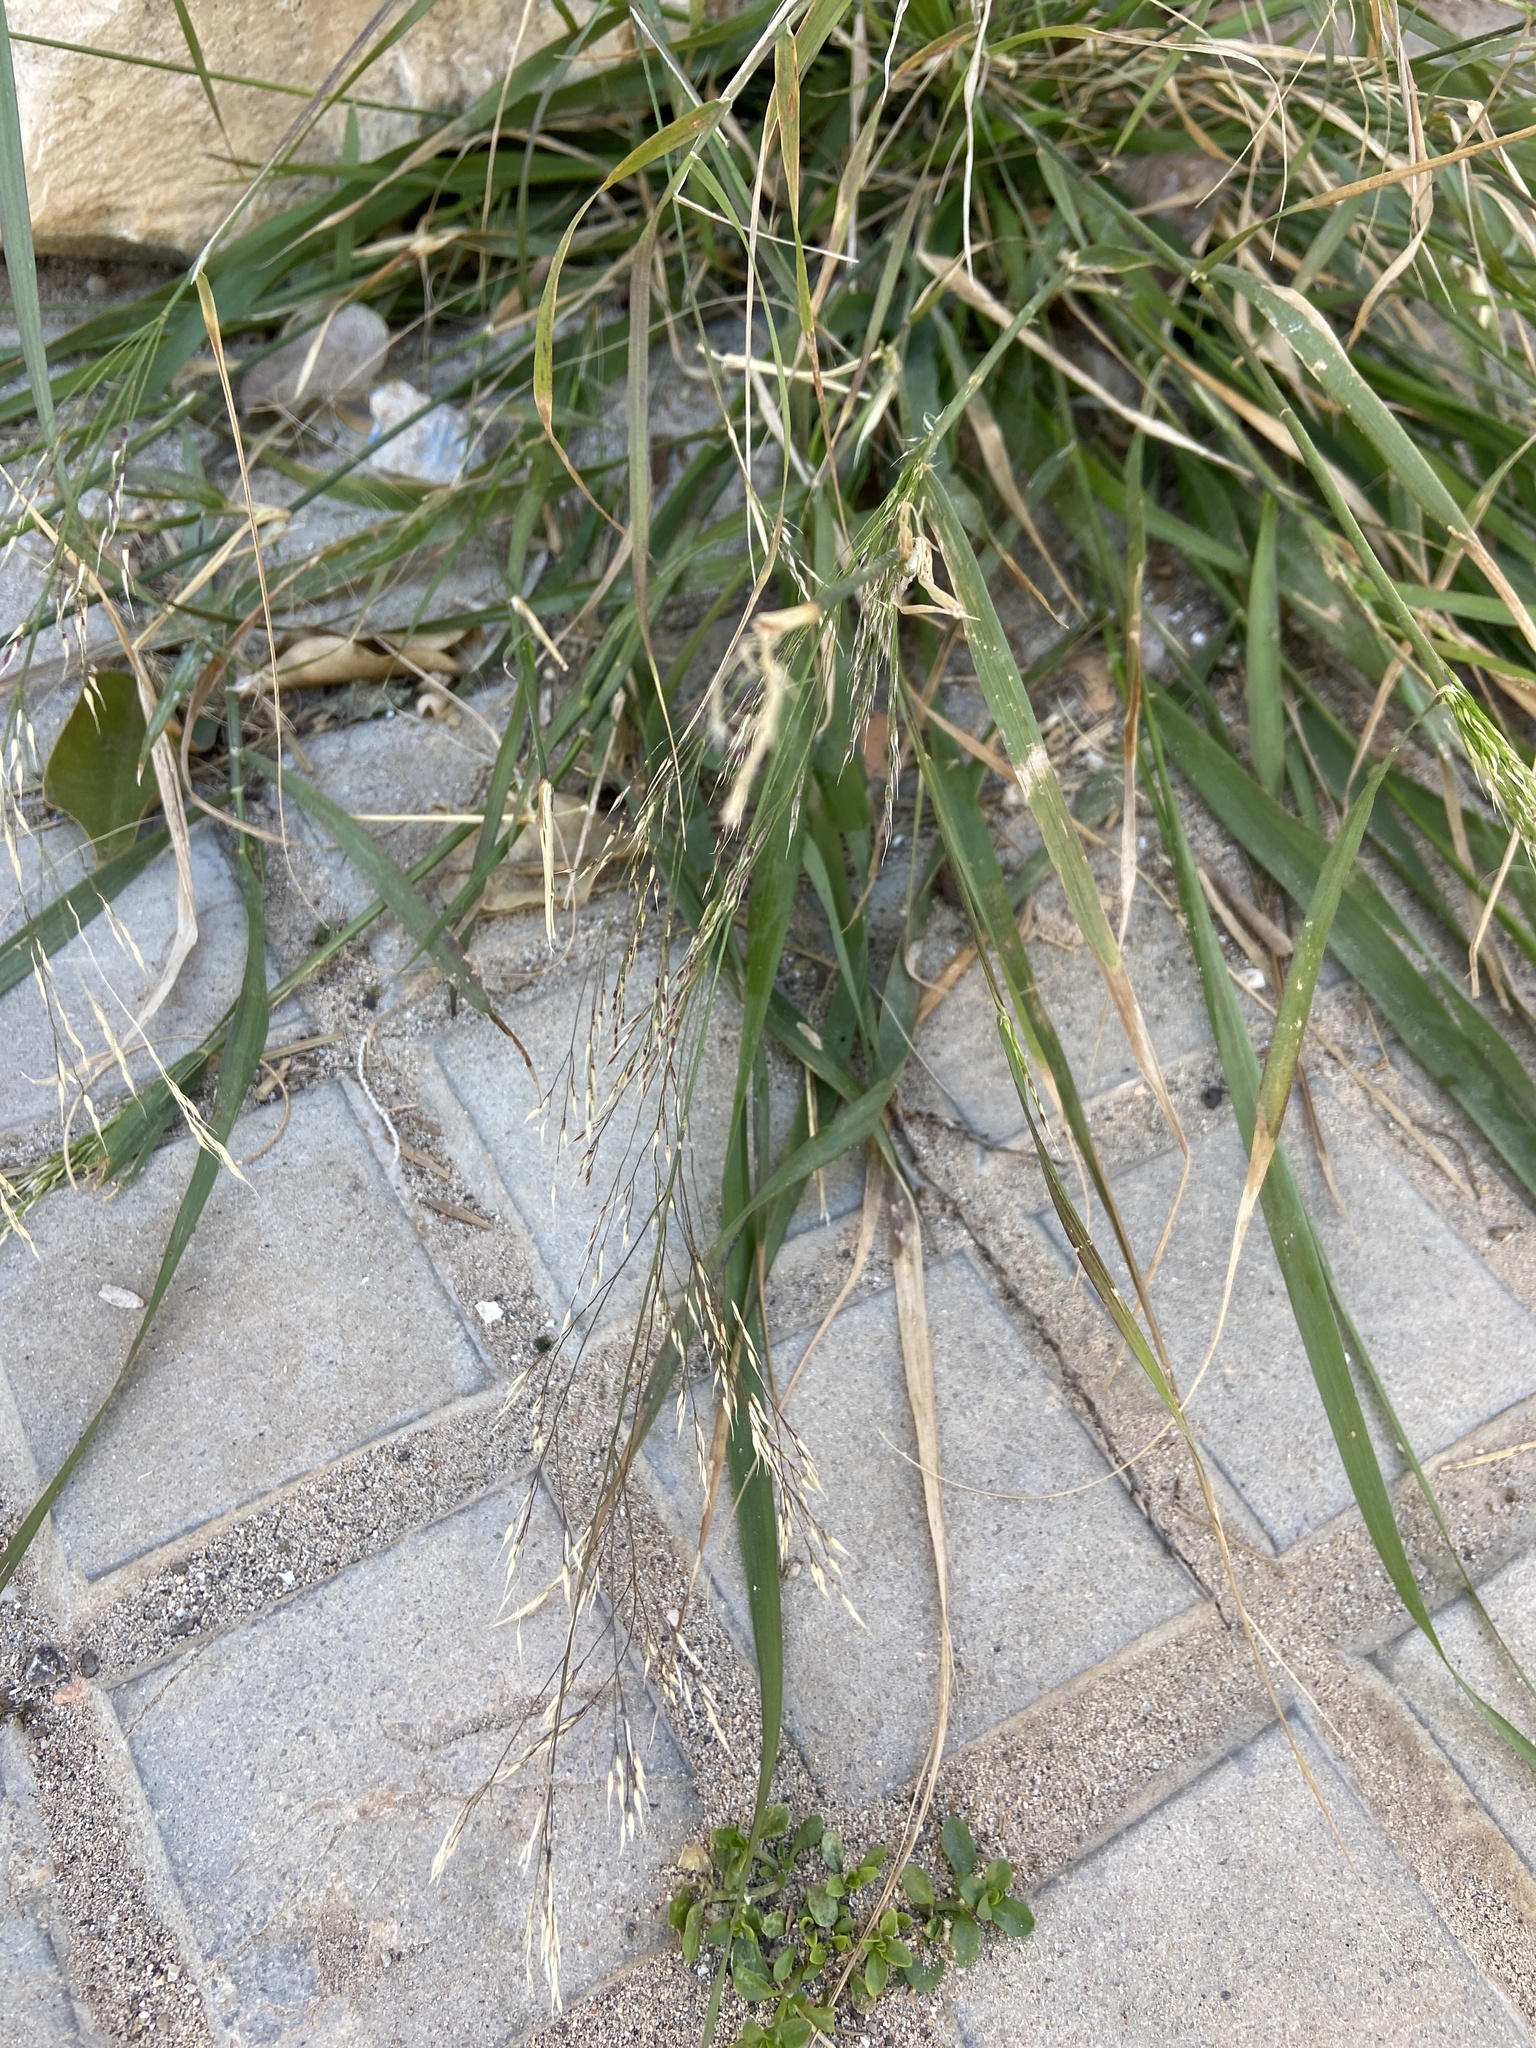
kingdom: Plantae
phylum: Tracheophyta
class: Liliopsida
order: Poales
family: Poaceae
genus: Oloptum
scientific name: Oloptum miliaceum
